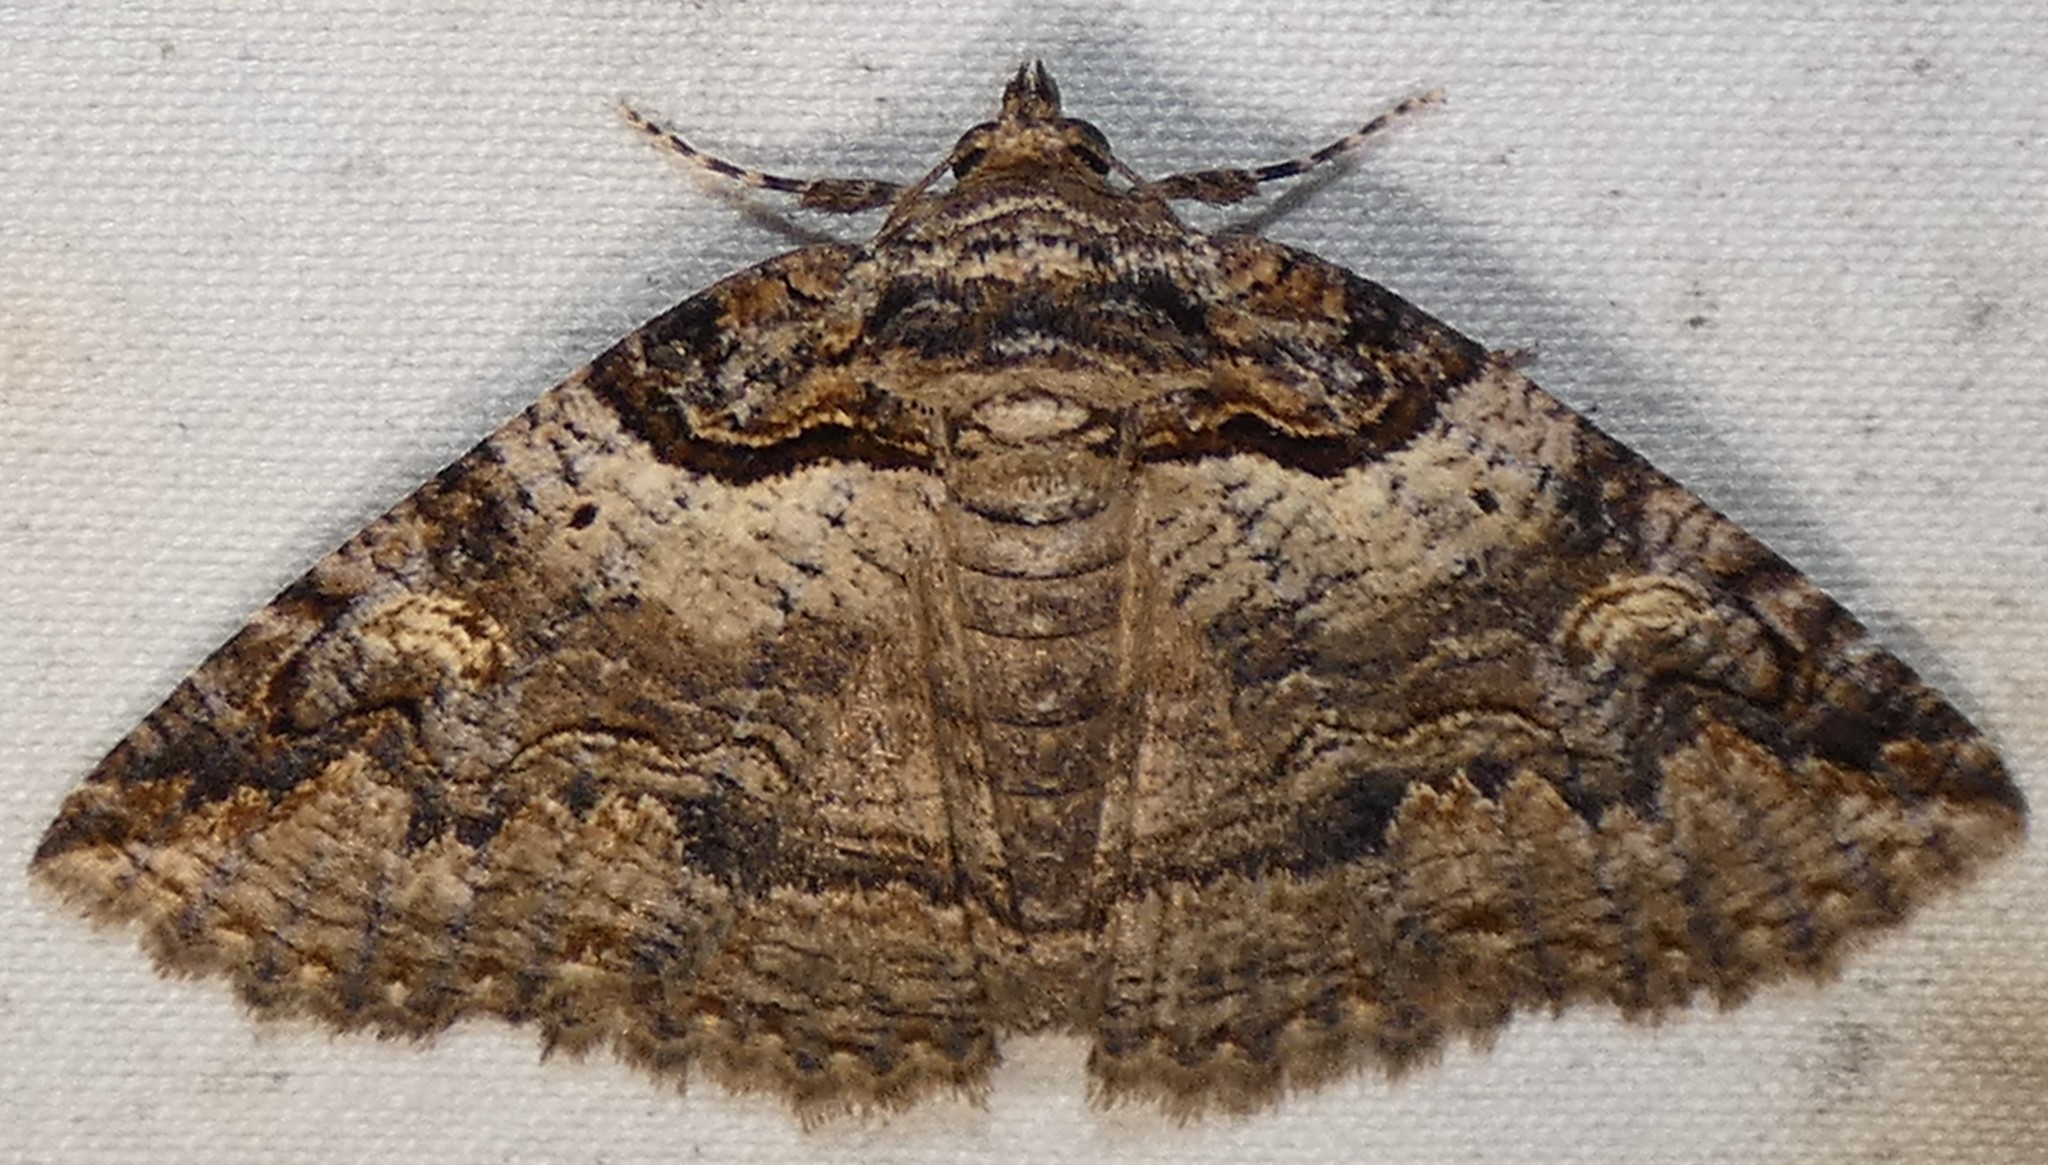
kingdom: Animalia
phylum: Arthropoda
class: Insecta
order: Lepidoptera
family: Erebidae
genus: Zale
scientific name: Zale intenta
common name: Intent zale moth
